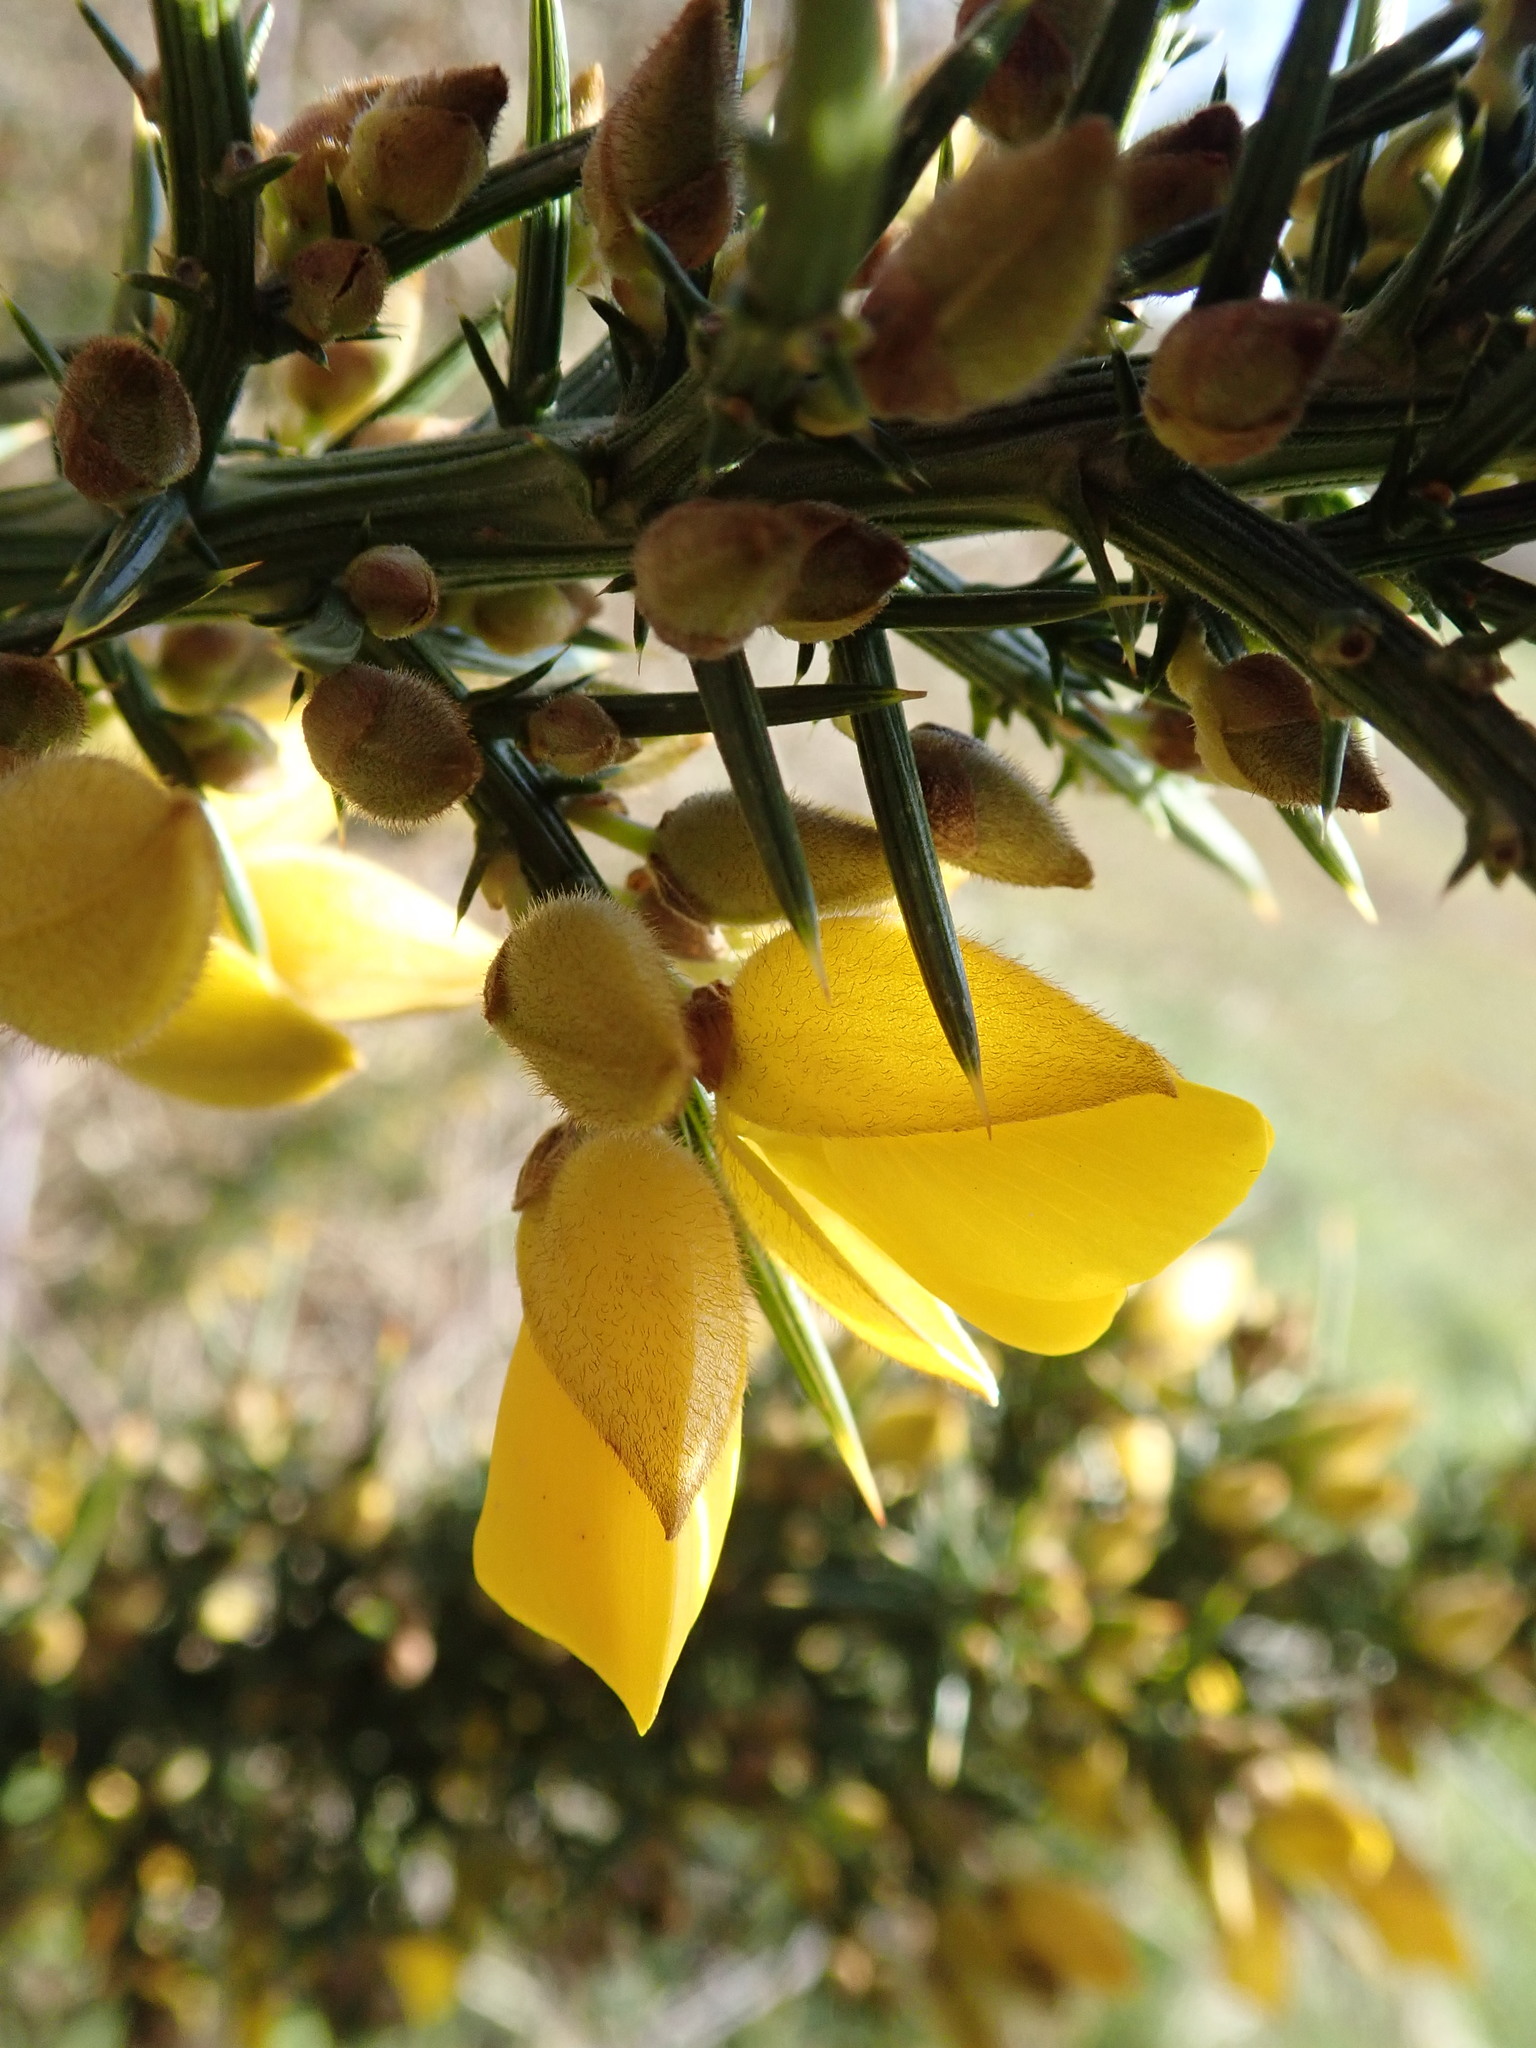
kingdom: Plantae
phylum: Tracheophyta
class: Magnoliopsida
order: Fabales
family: Fabaceae
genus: Ulex
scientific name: Ulex europaeus
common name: Common gorse
